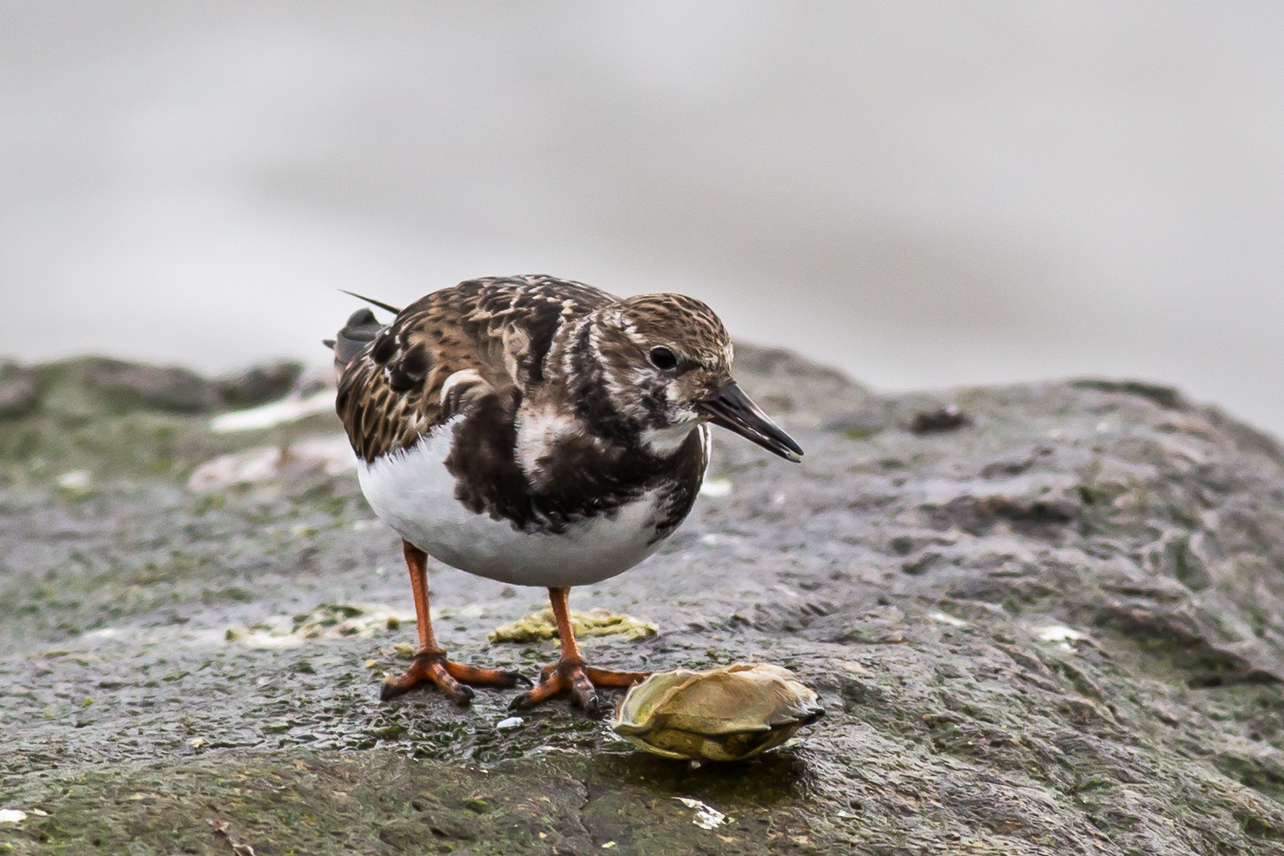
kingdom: Animalia
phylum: Chordata
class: Aves
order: Charadriiformes
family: Scolopacidae
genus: Arenaria
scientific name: Arenaria interpres
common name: Ruddy turnstone
